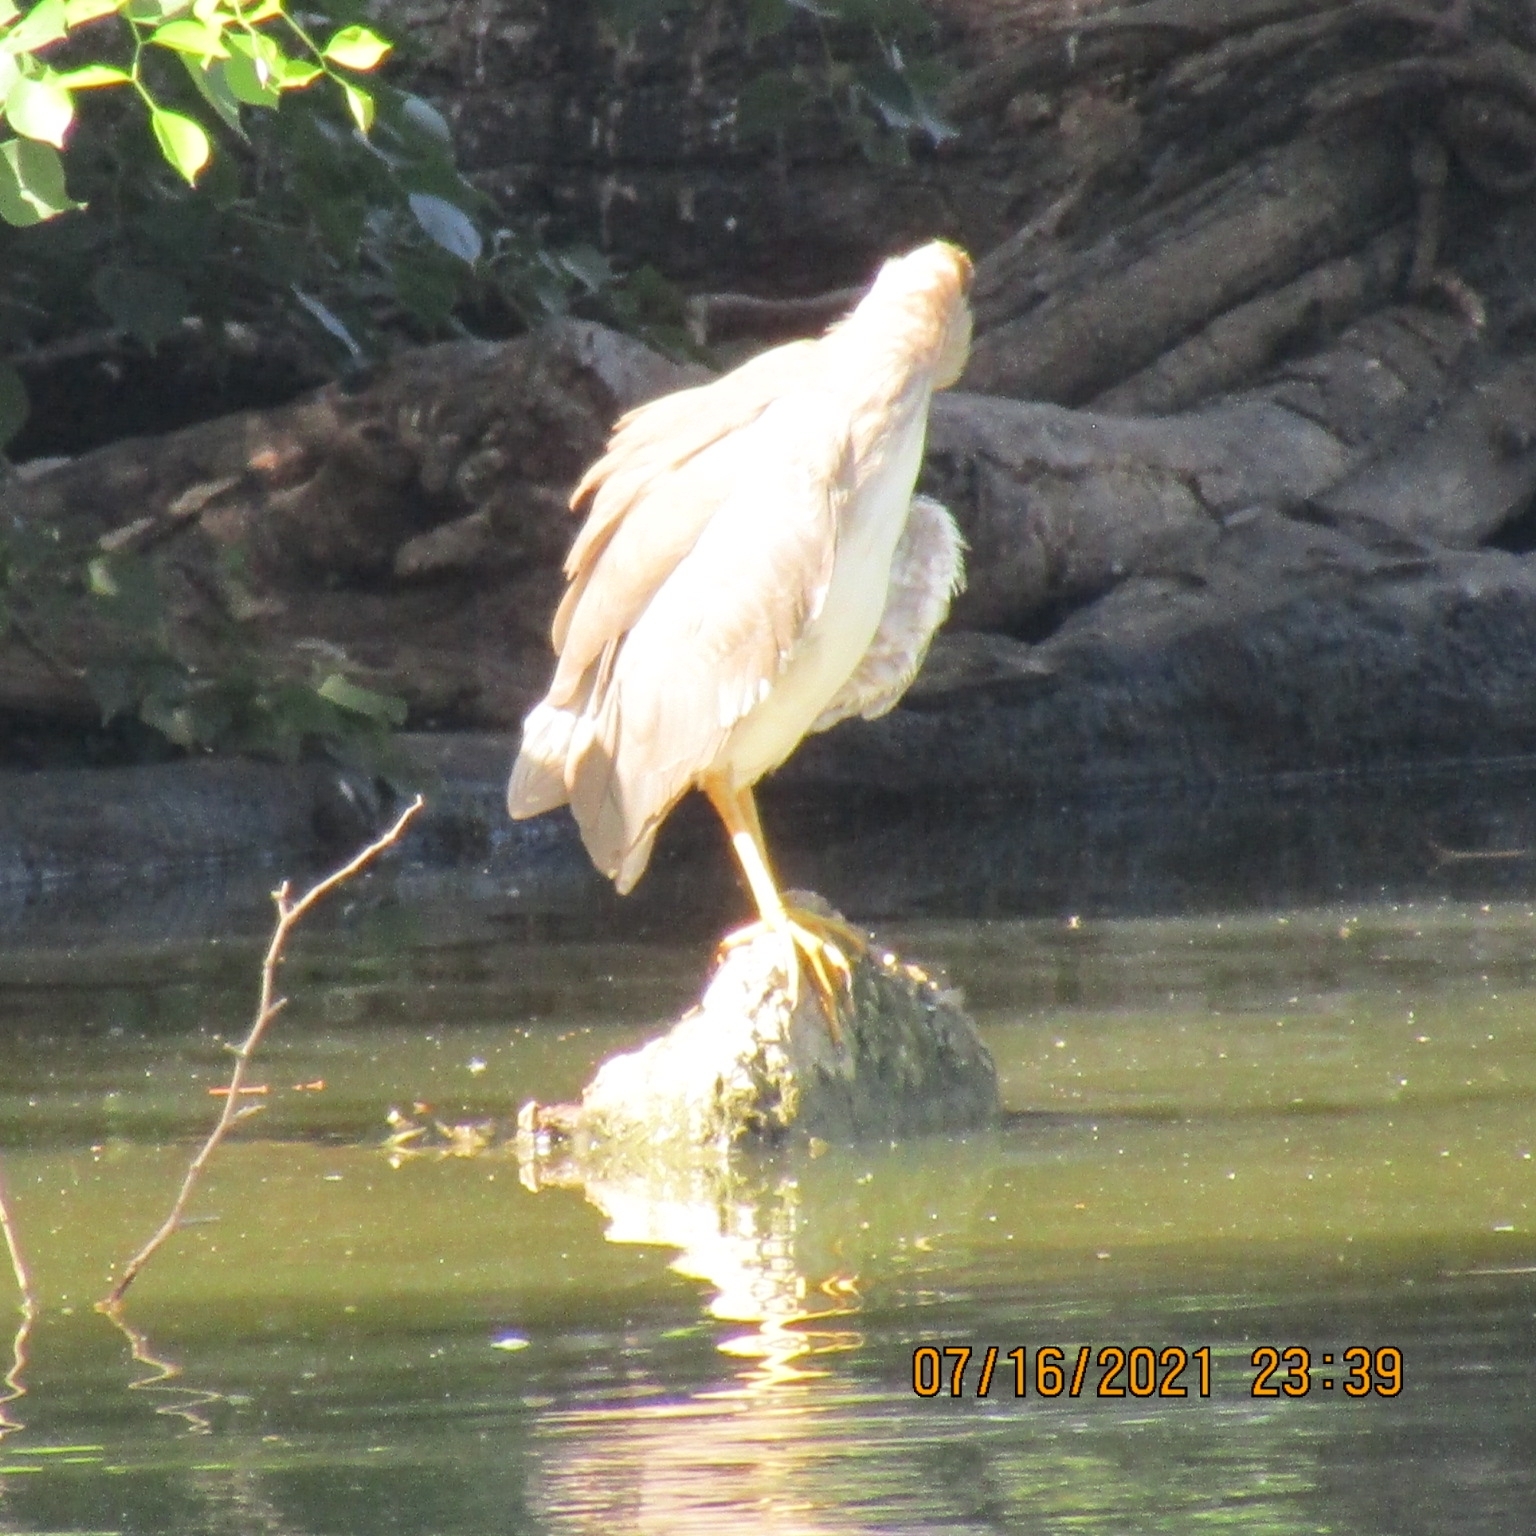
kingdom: Animalia
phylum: Chordata
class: Aves
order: Pelecaniformes
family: Ardeidae
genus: Ardeola
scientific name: Ardeola ralloides
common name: Squacco heron
